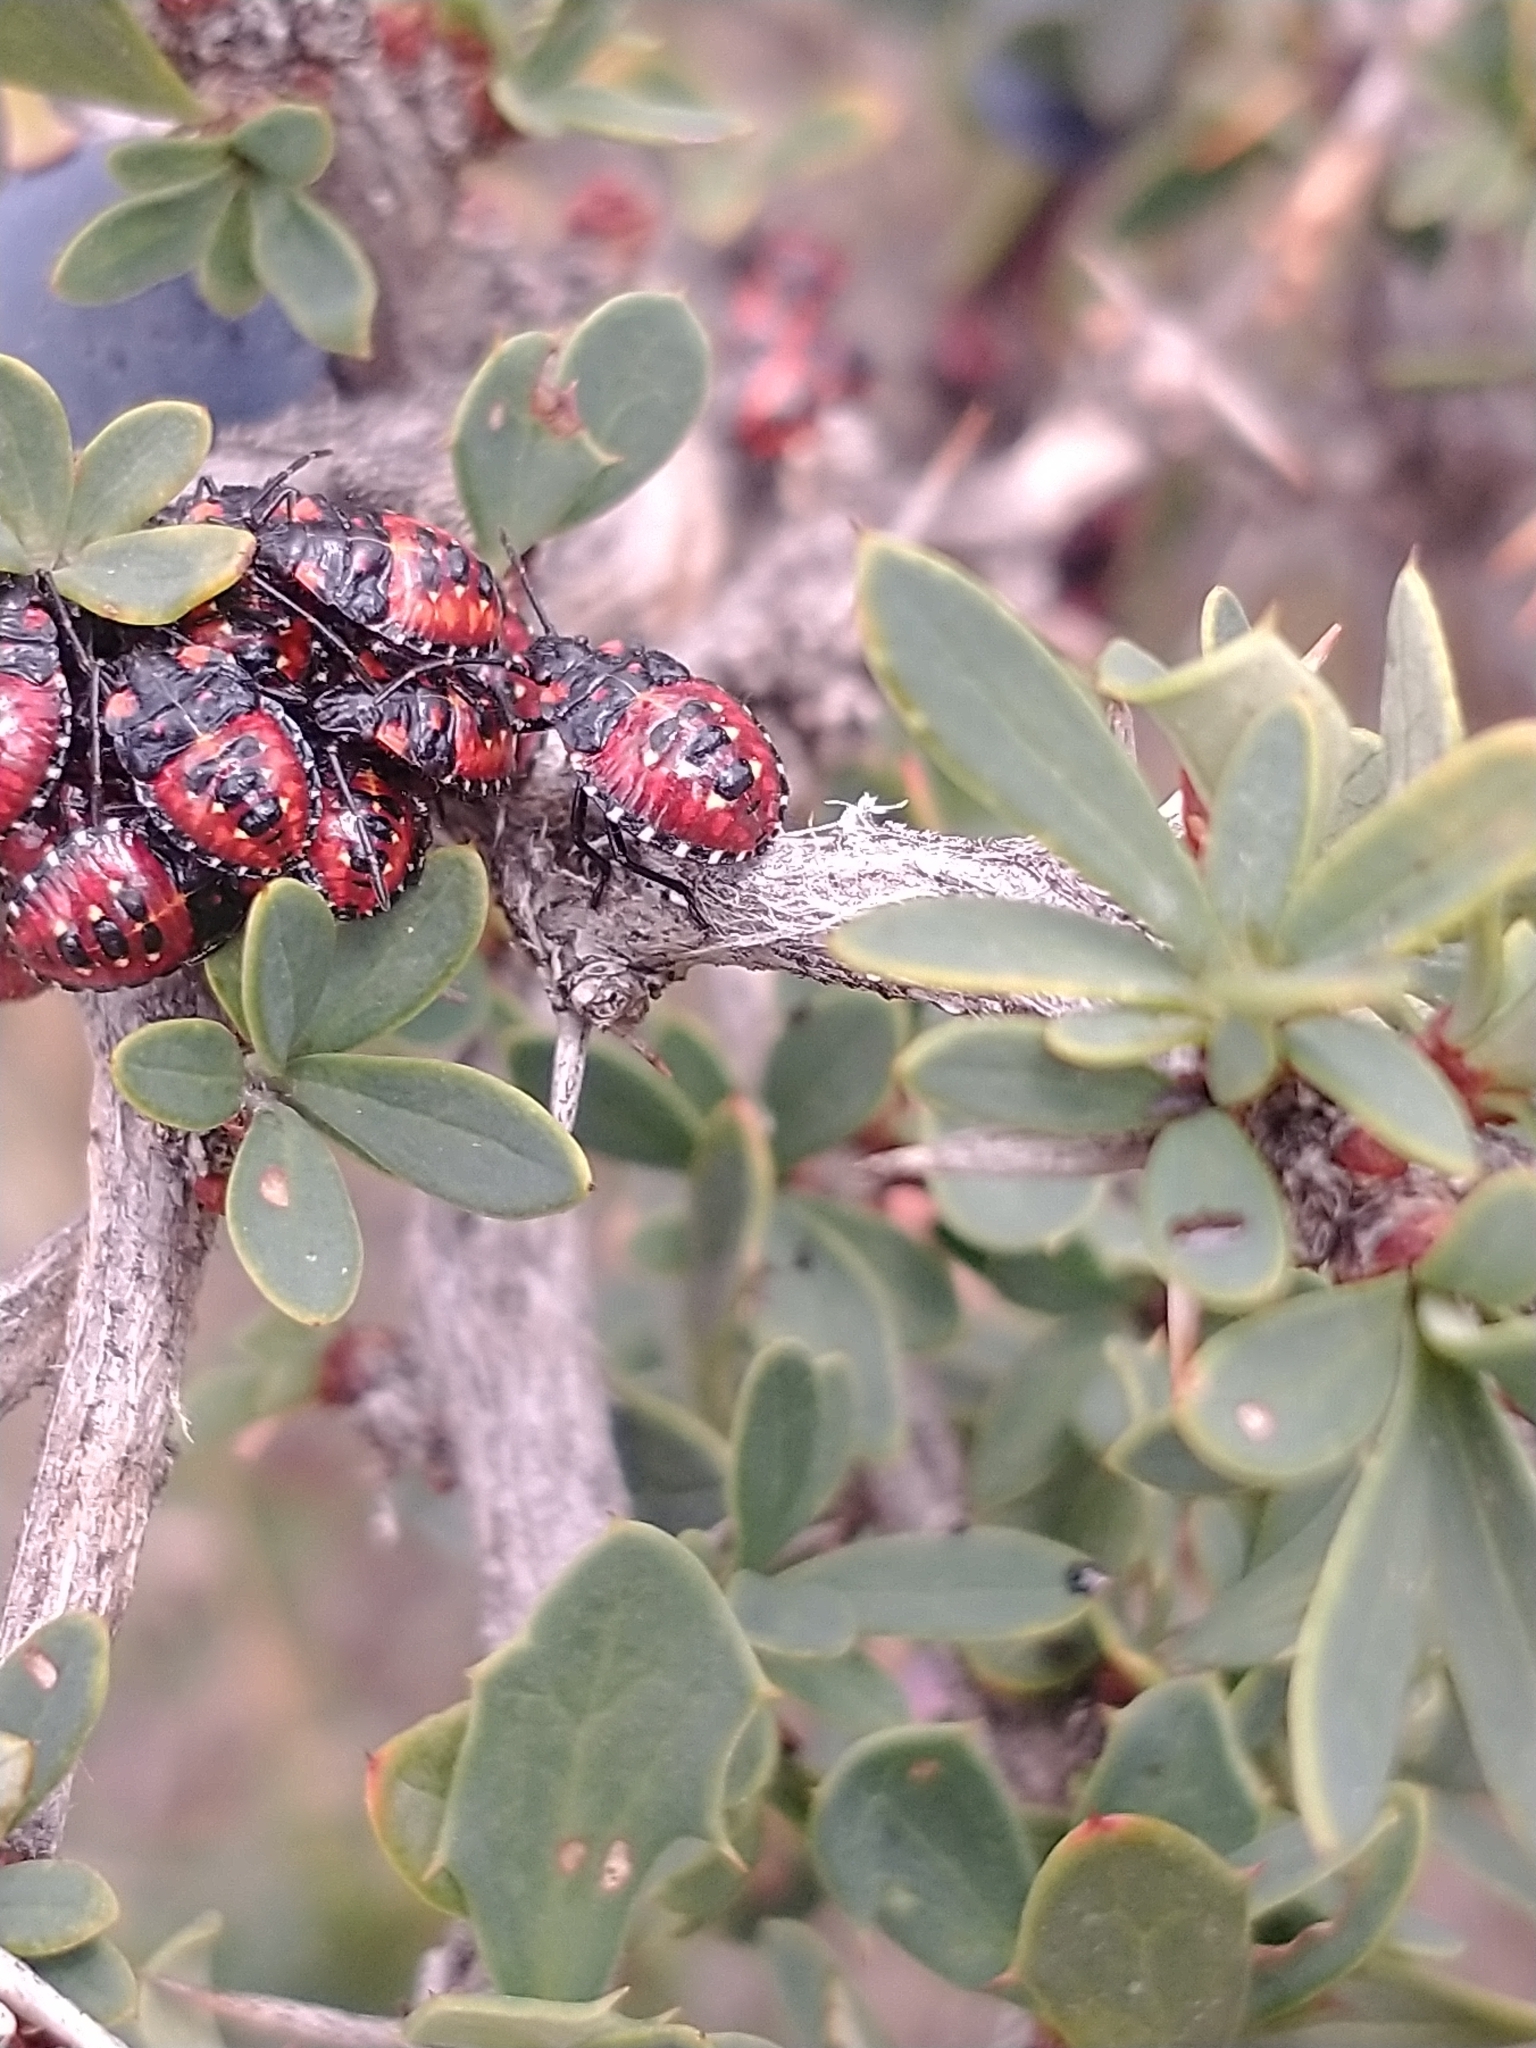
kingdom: Animalia
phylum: Arthropoda
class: Insecta
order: Hemiptera
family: Acanthosomatidae
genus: Phorbanta
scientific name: Phorbanta variabilis
